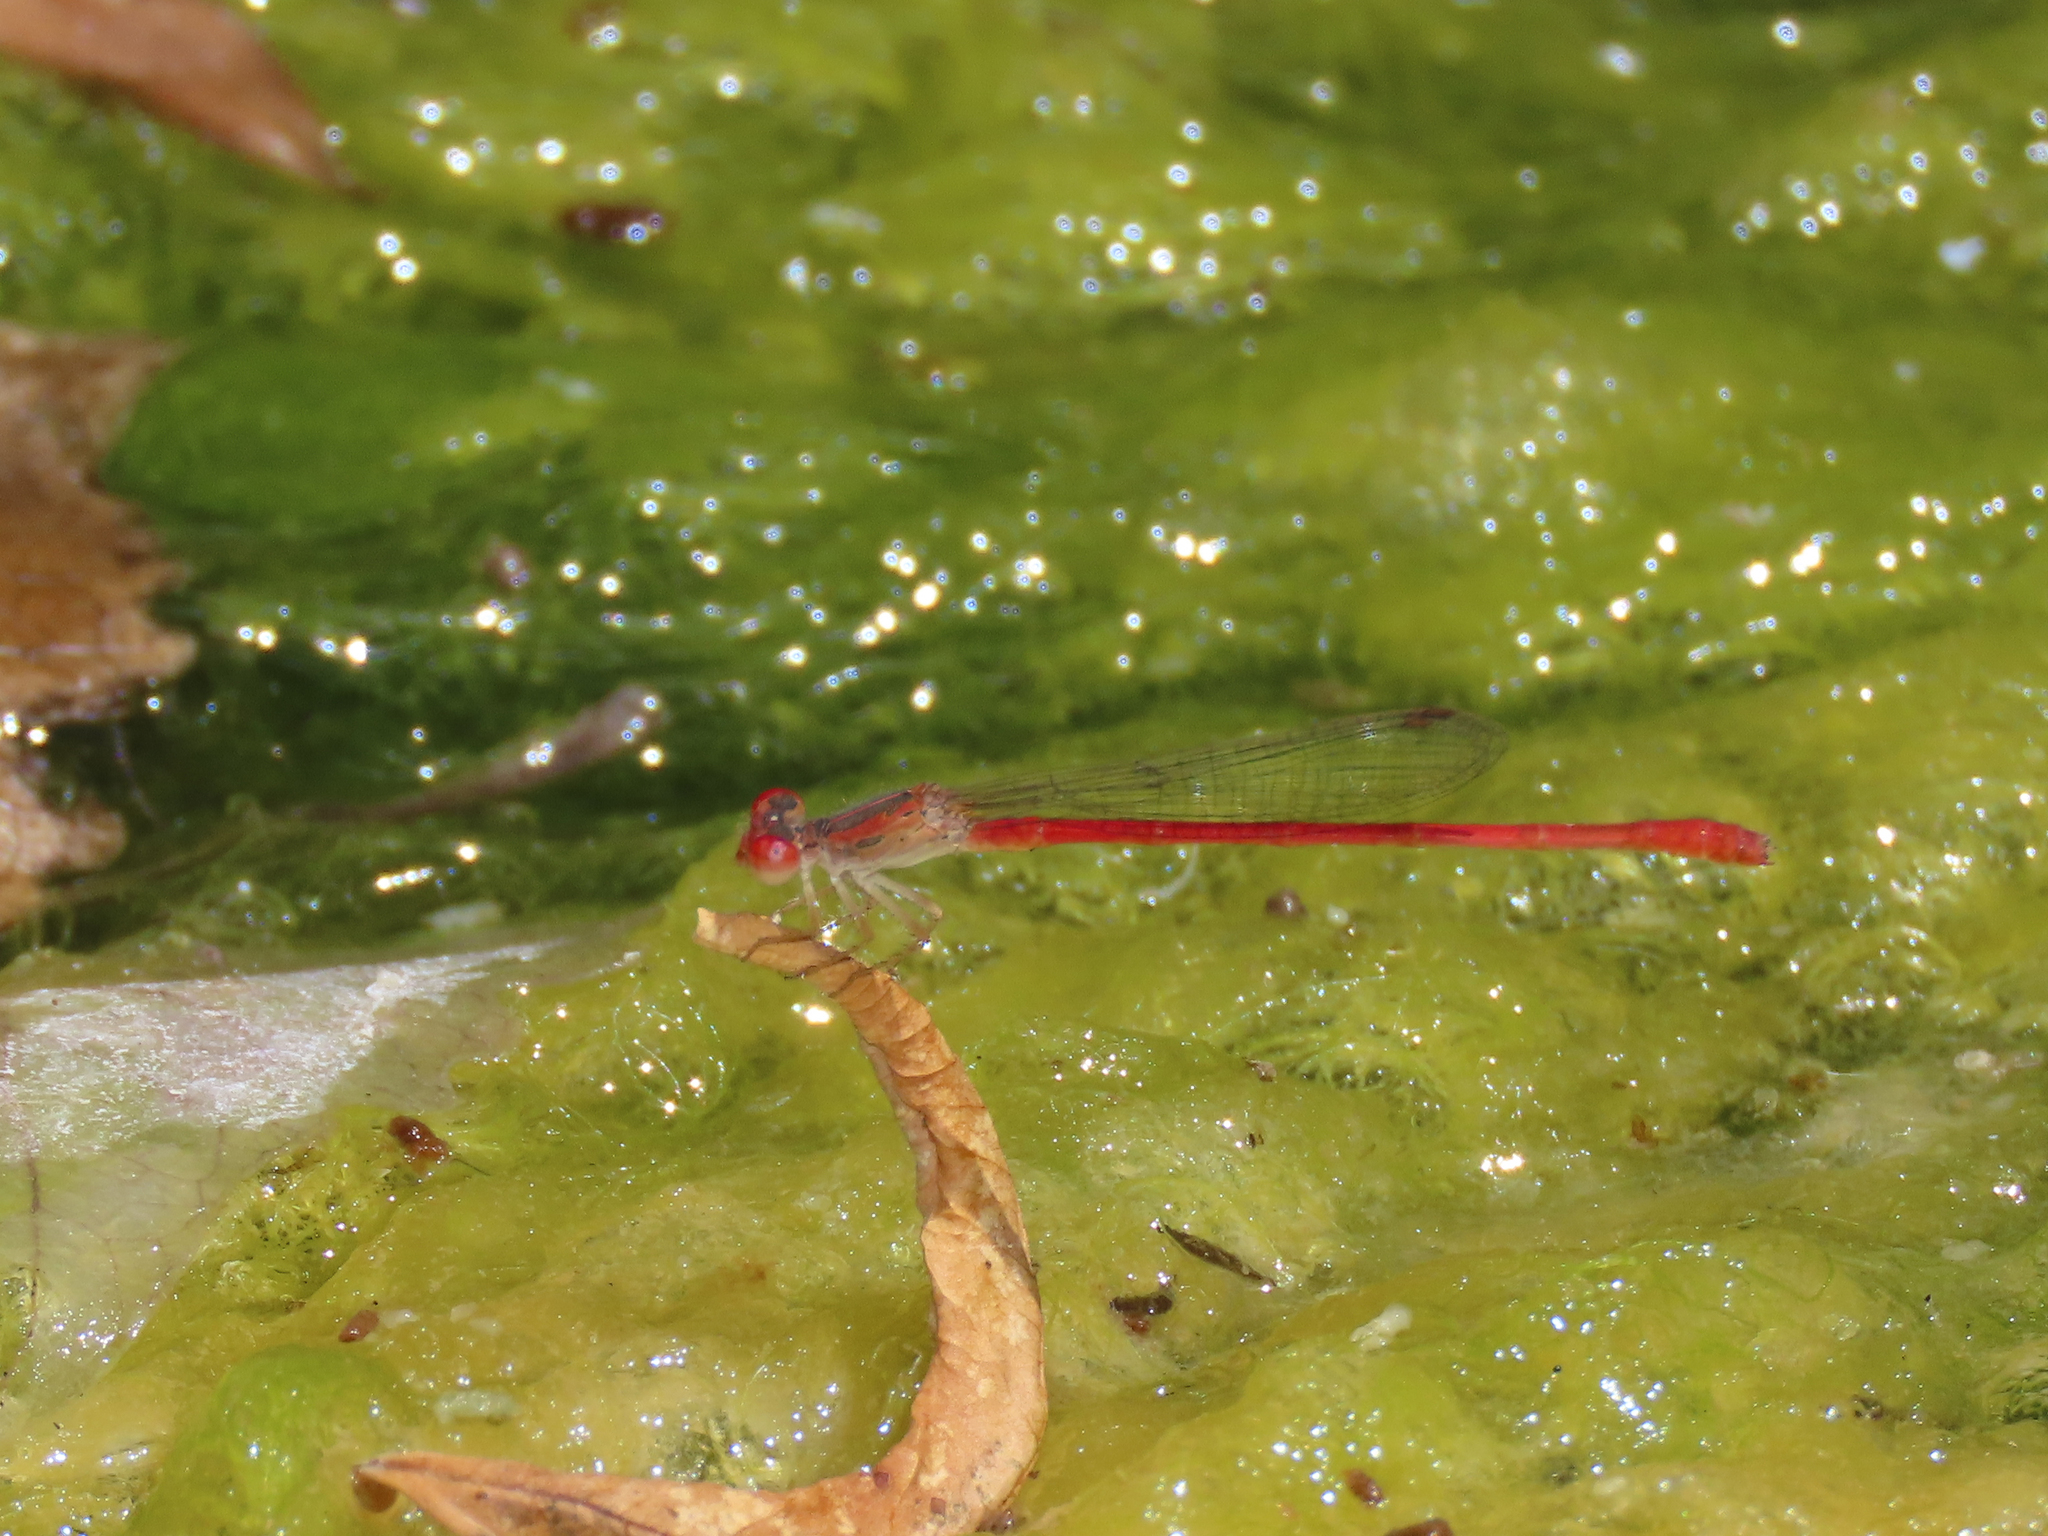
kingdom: Animalia
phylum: Arthropoda
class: Insecta
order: Odonata
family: Coenagrionidae
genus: Telebasis
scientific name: Telebasis salva
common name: Desert firetail
